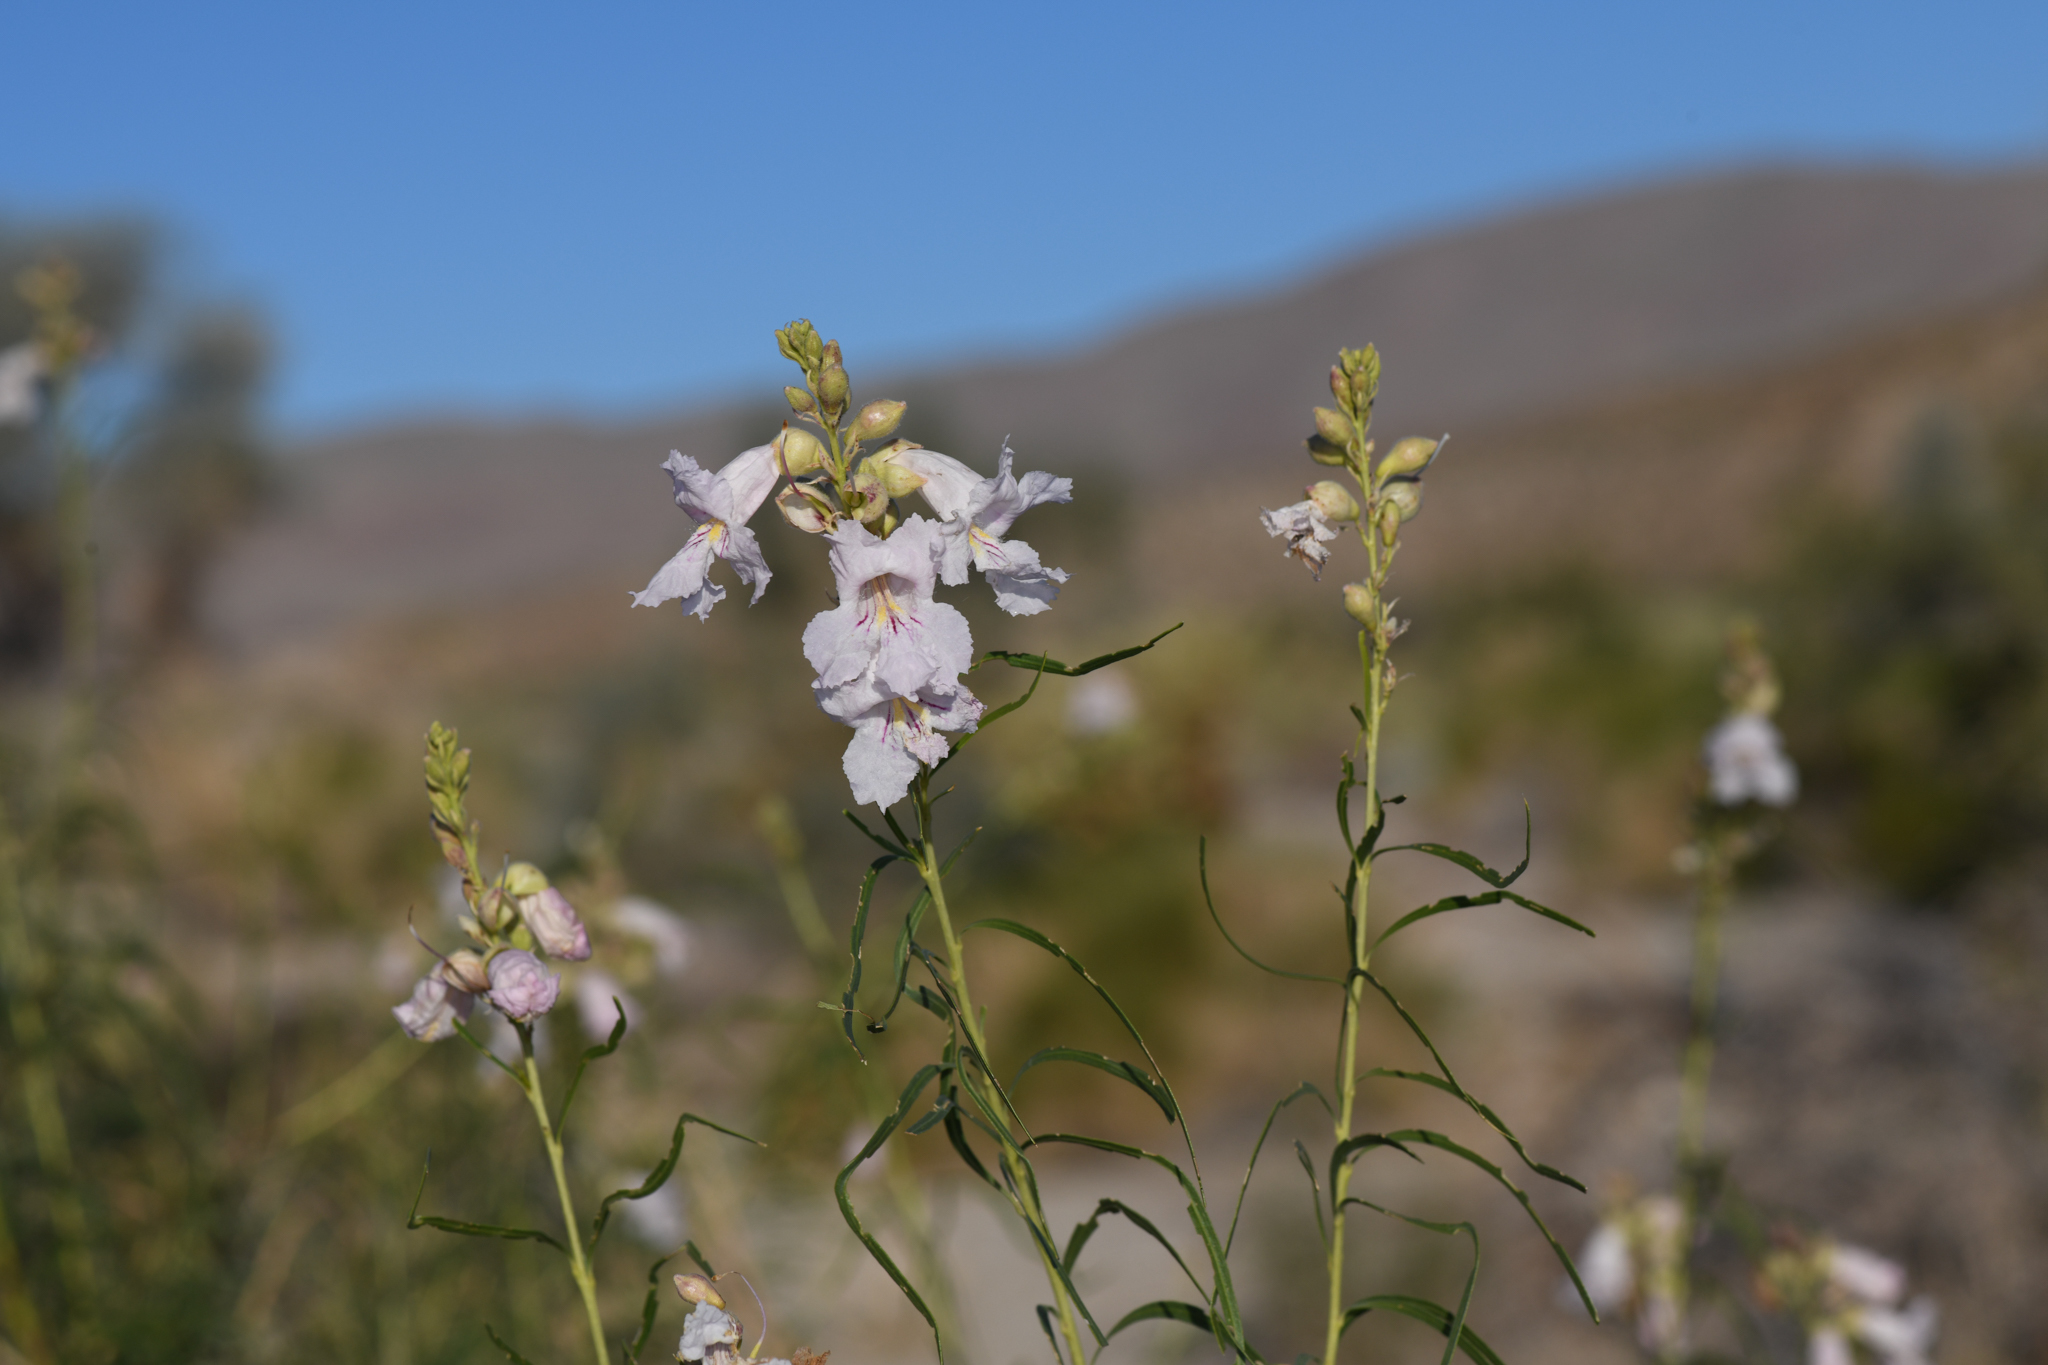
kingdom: Plantae
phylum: Tracheophyta
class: Magnoliopsida
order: Lamiales
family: Bignoniaceae
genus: Chilopsis
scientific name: Chilopsis linearis
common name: Desert-willow
